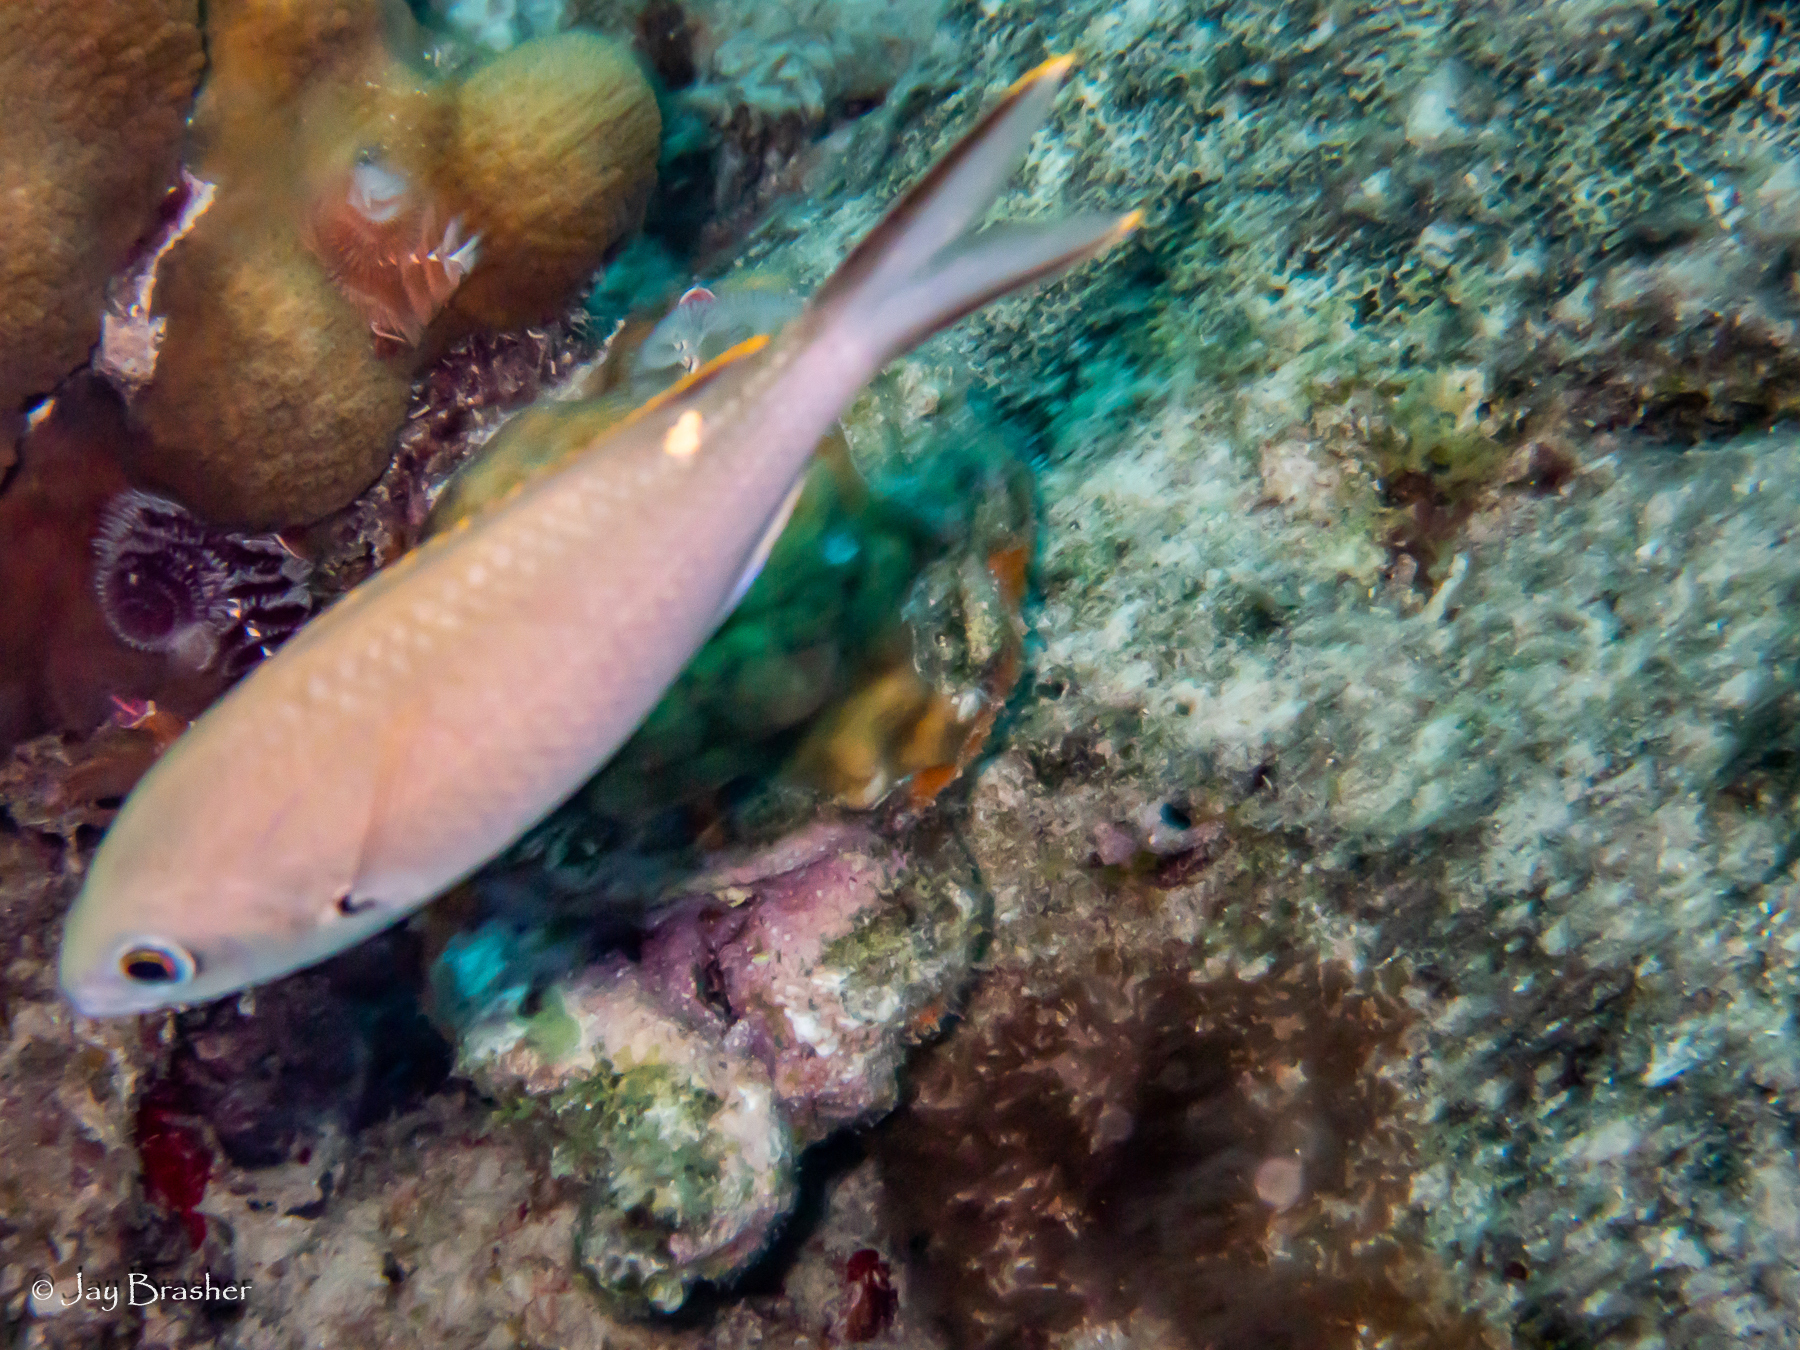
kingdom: Animalia
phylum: Chordata
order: Perciformes
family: Pomacentridae
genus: Chromis
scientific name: Chromis multilineata
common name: Brown chromis
